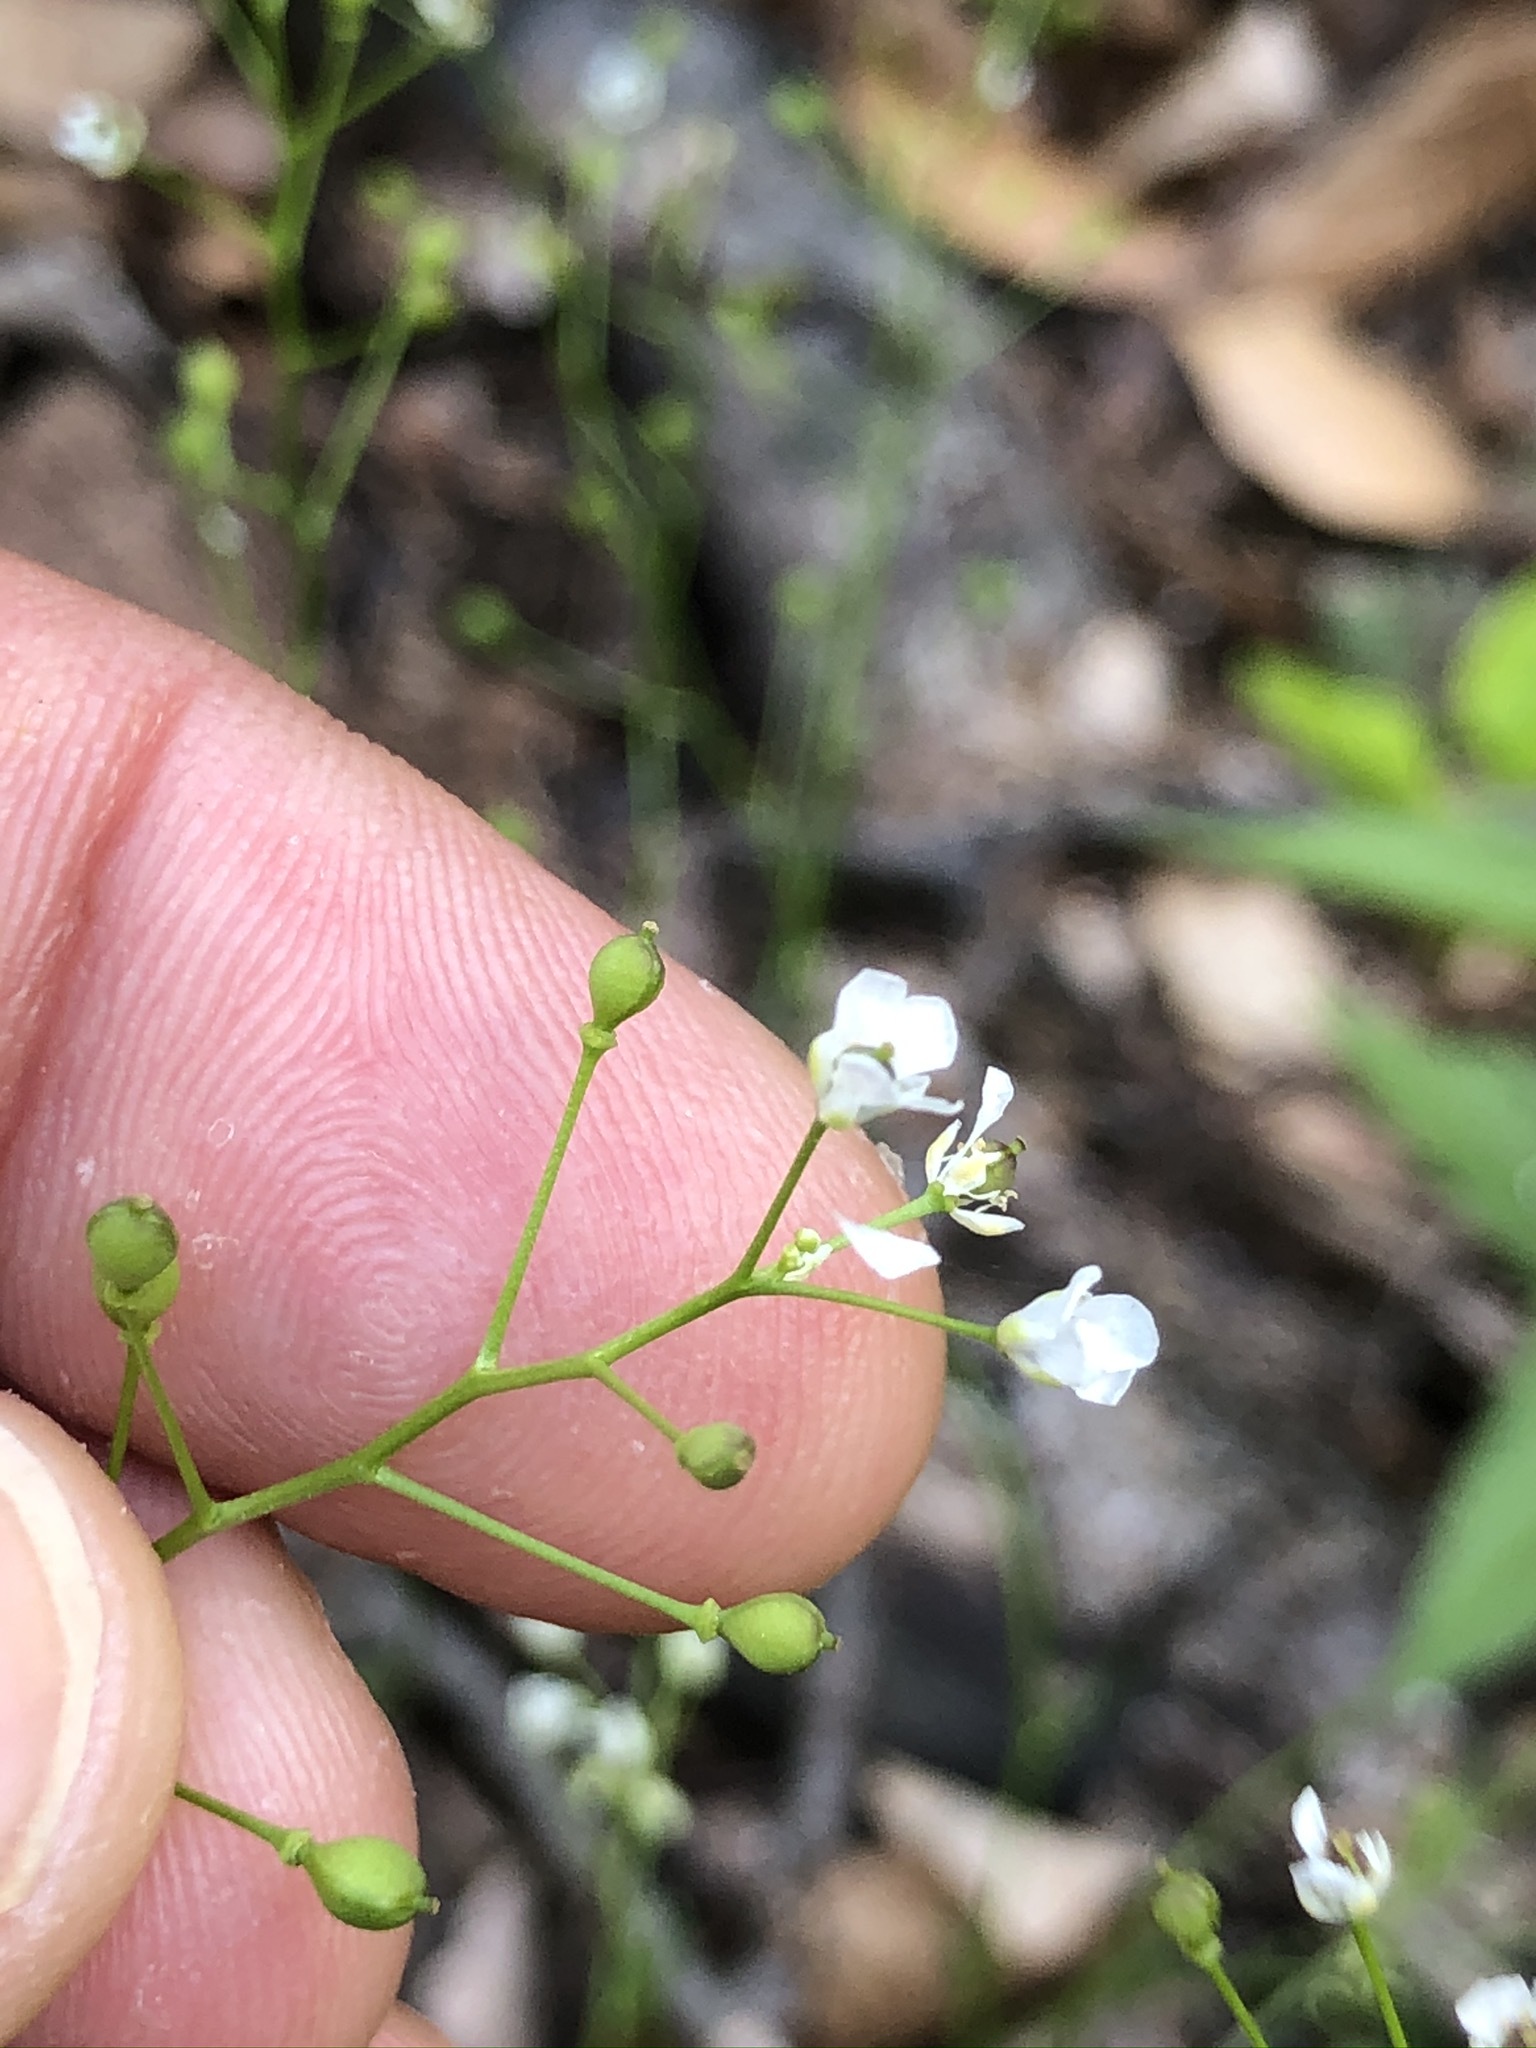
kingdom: Plantae
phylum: Tracheophyta
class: Magnoliopsida
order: Brassicales
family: Brassicaceae
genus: Kernera
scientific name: Kernera saxatilis
